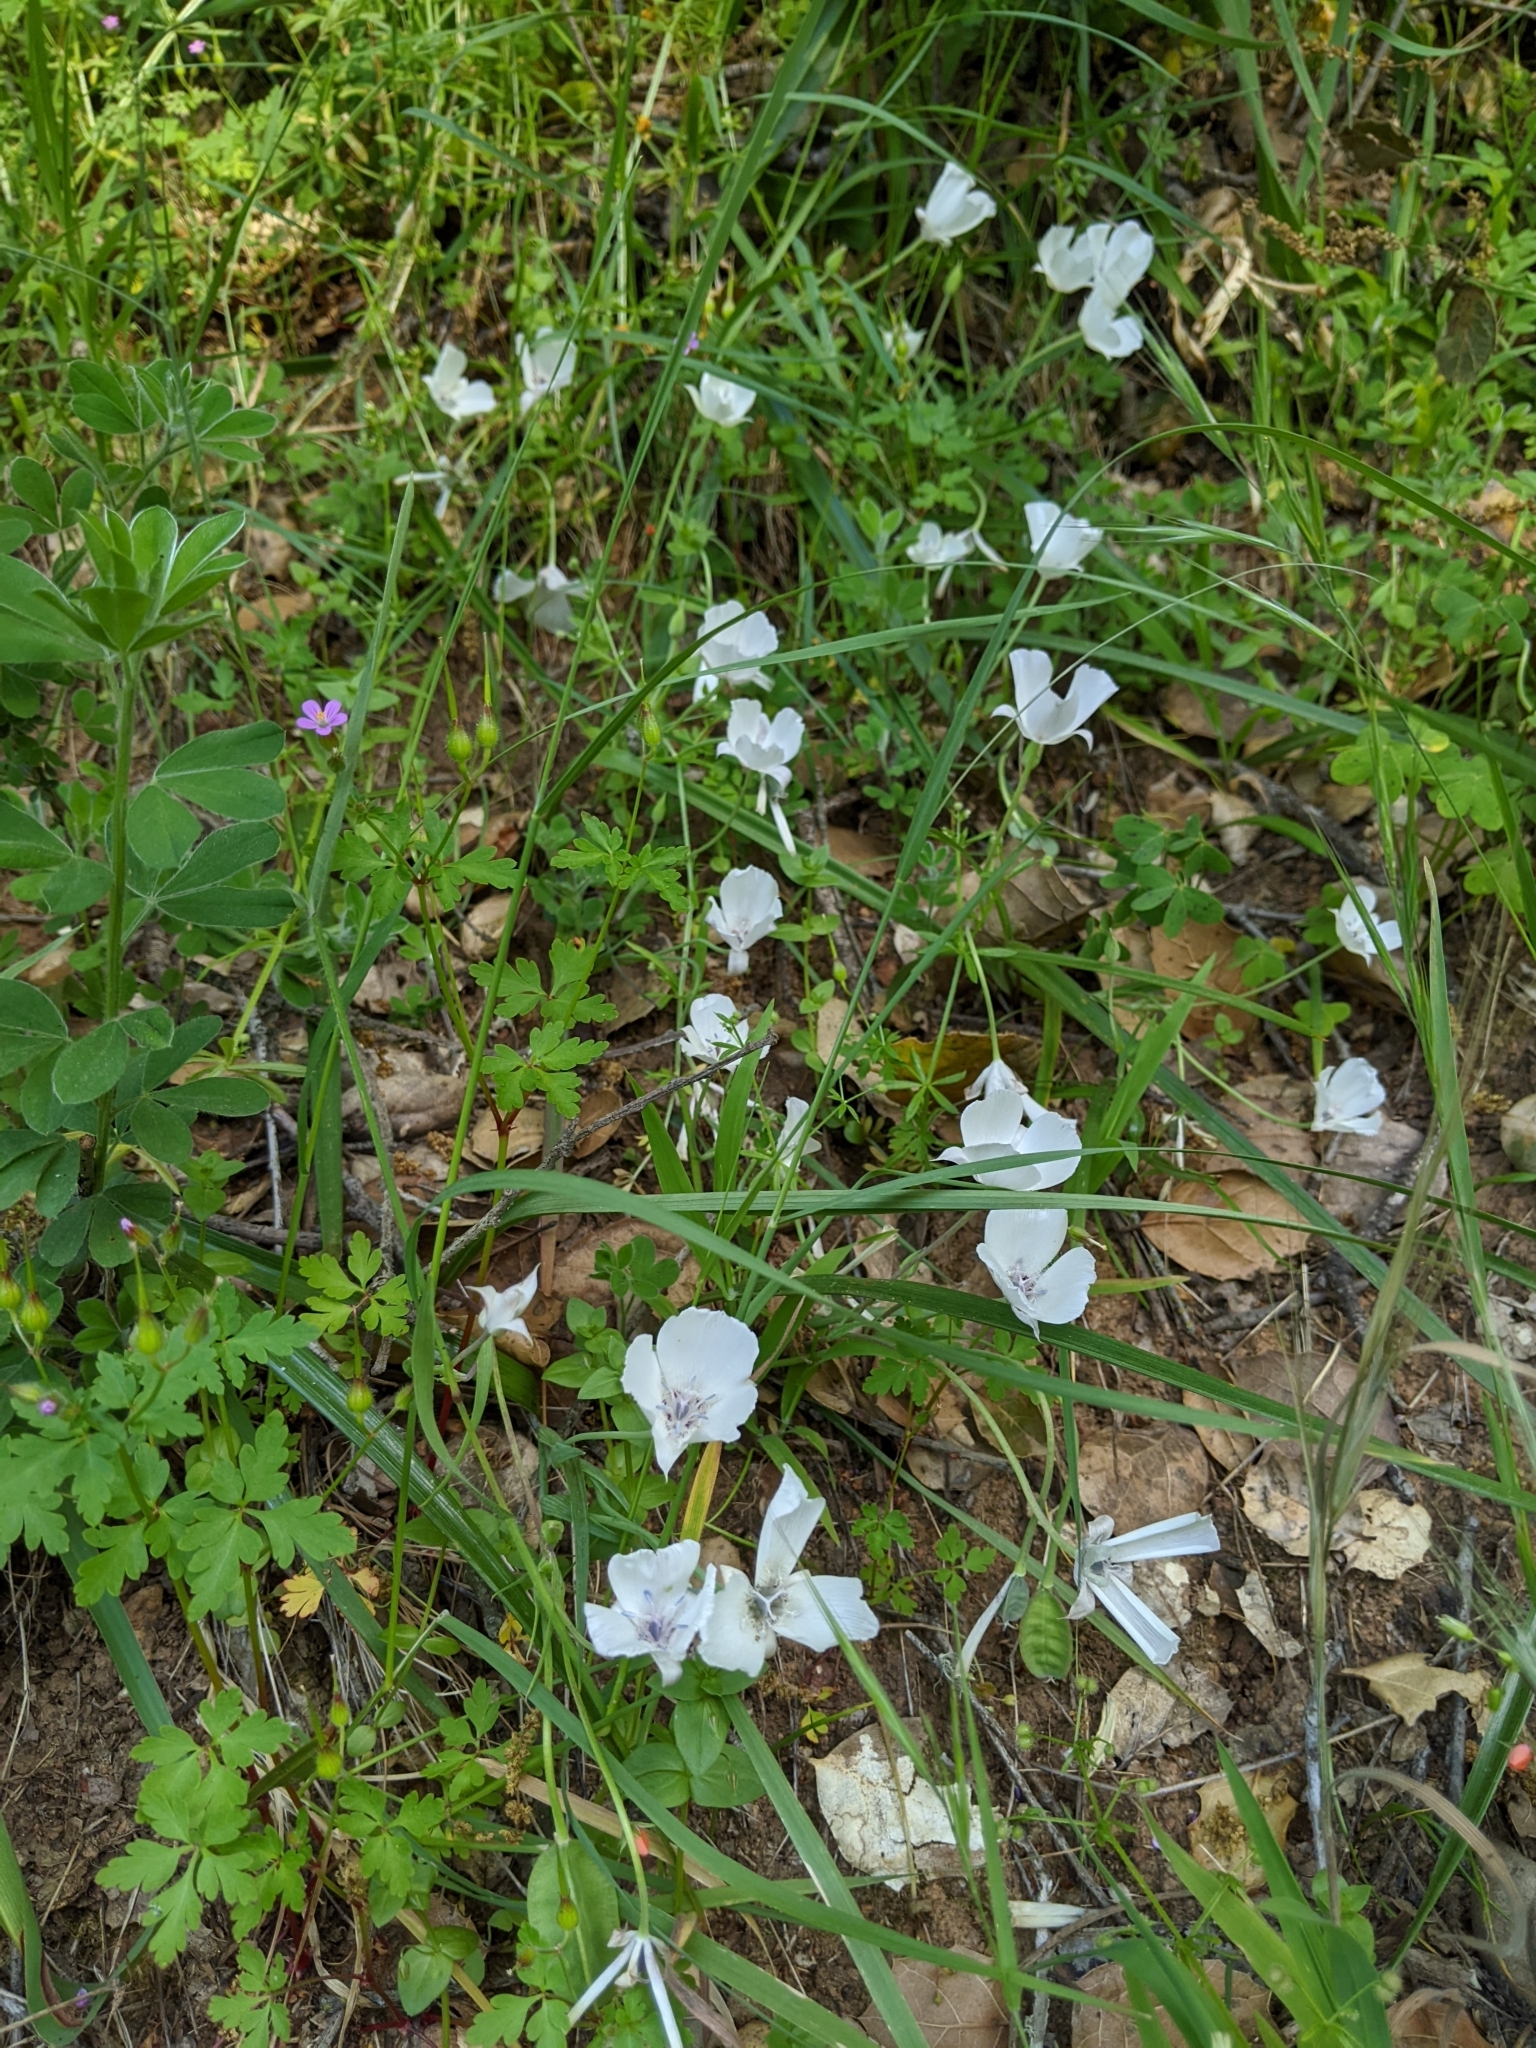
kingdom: Plantae
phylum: Tracheophyta
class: Liliopsida
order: Liliales
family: Liliaceae
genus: Calochortus
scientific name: Calochortus umbellatus
